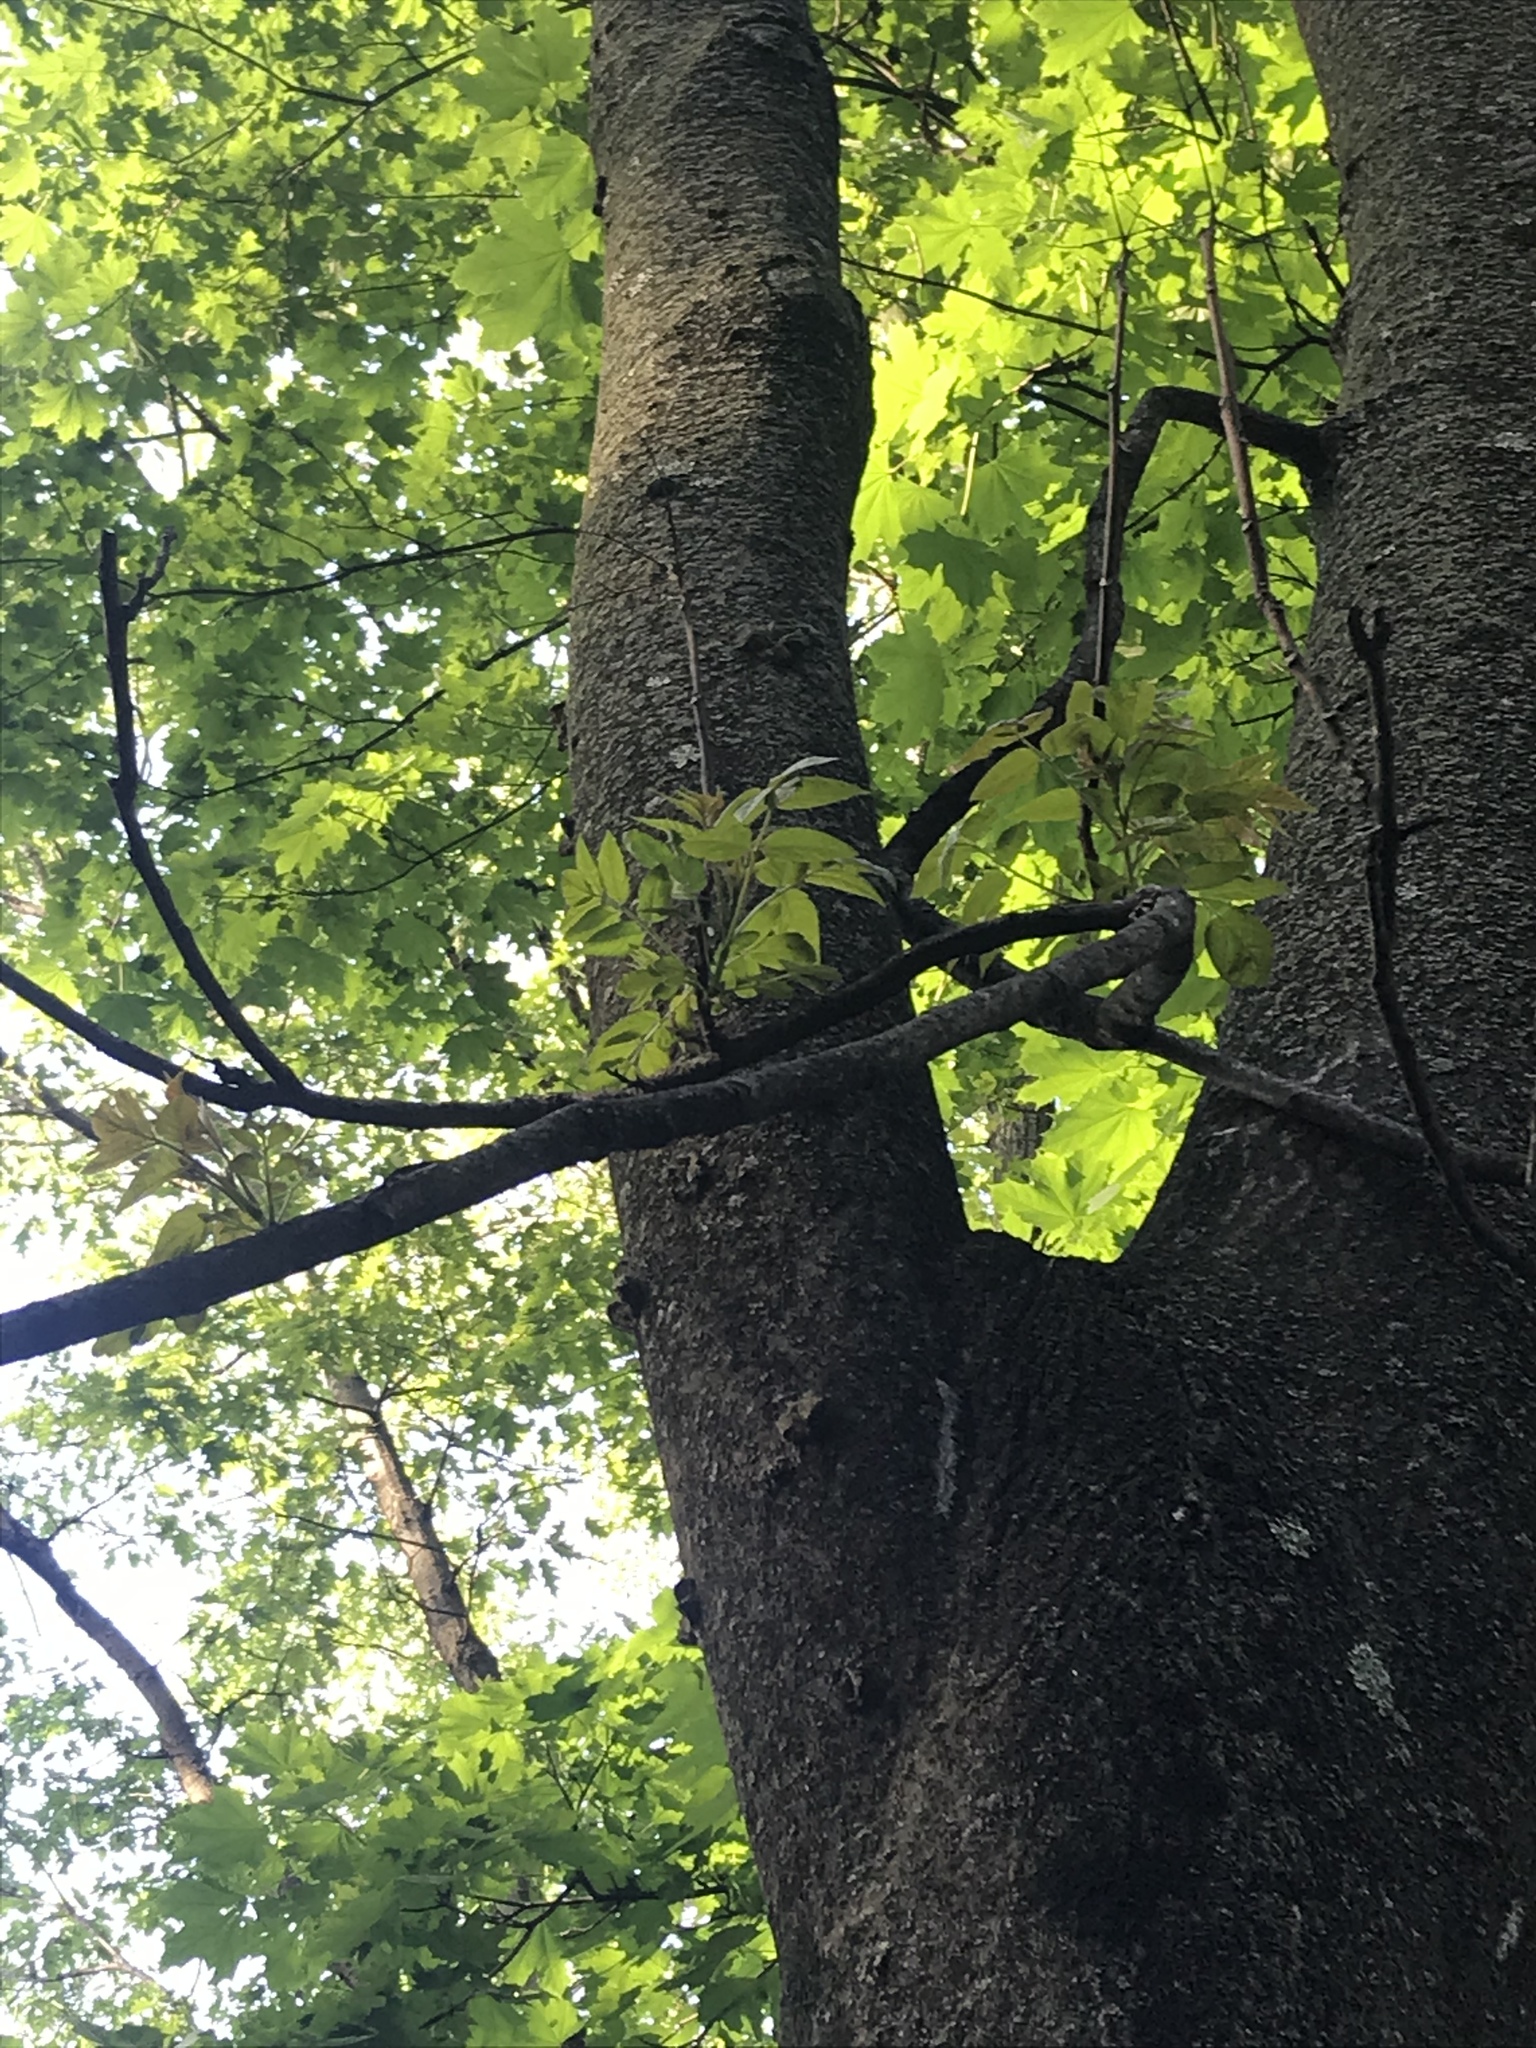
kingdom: Plantae
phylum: Tracheophyta
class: Magnoliopsida
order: Sapindales
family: Simaroubaceae
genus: Ailanthus
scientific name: Ailanthus altissima
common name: Tree-of-heaven
